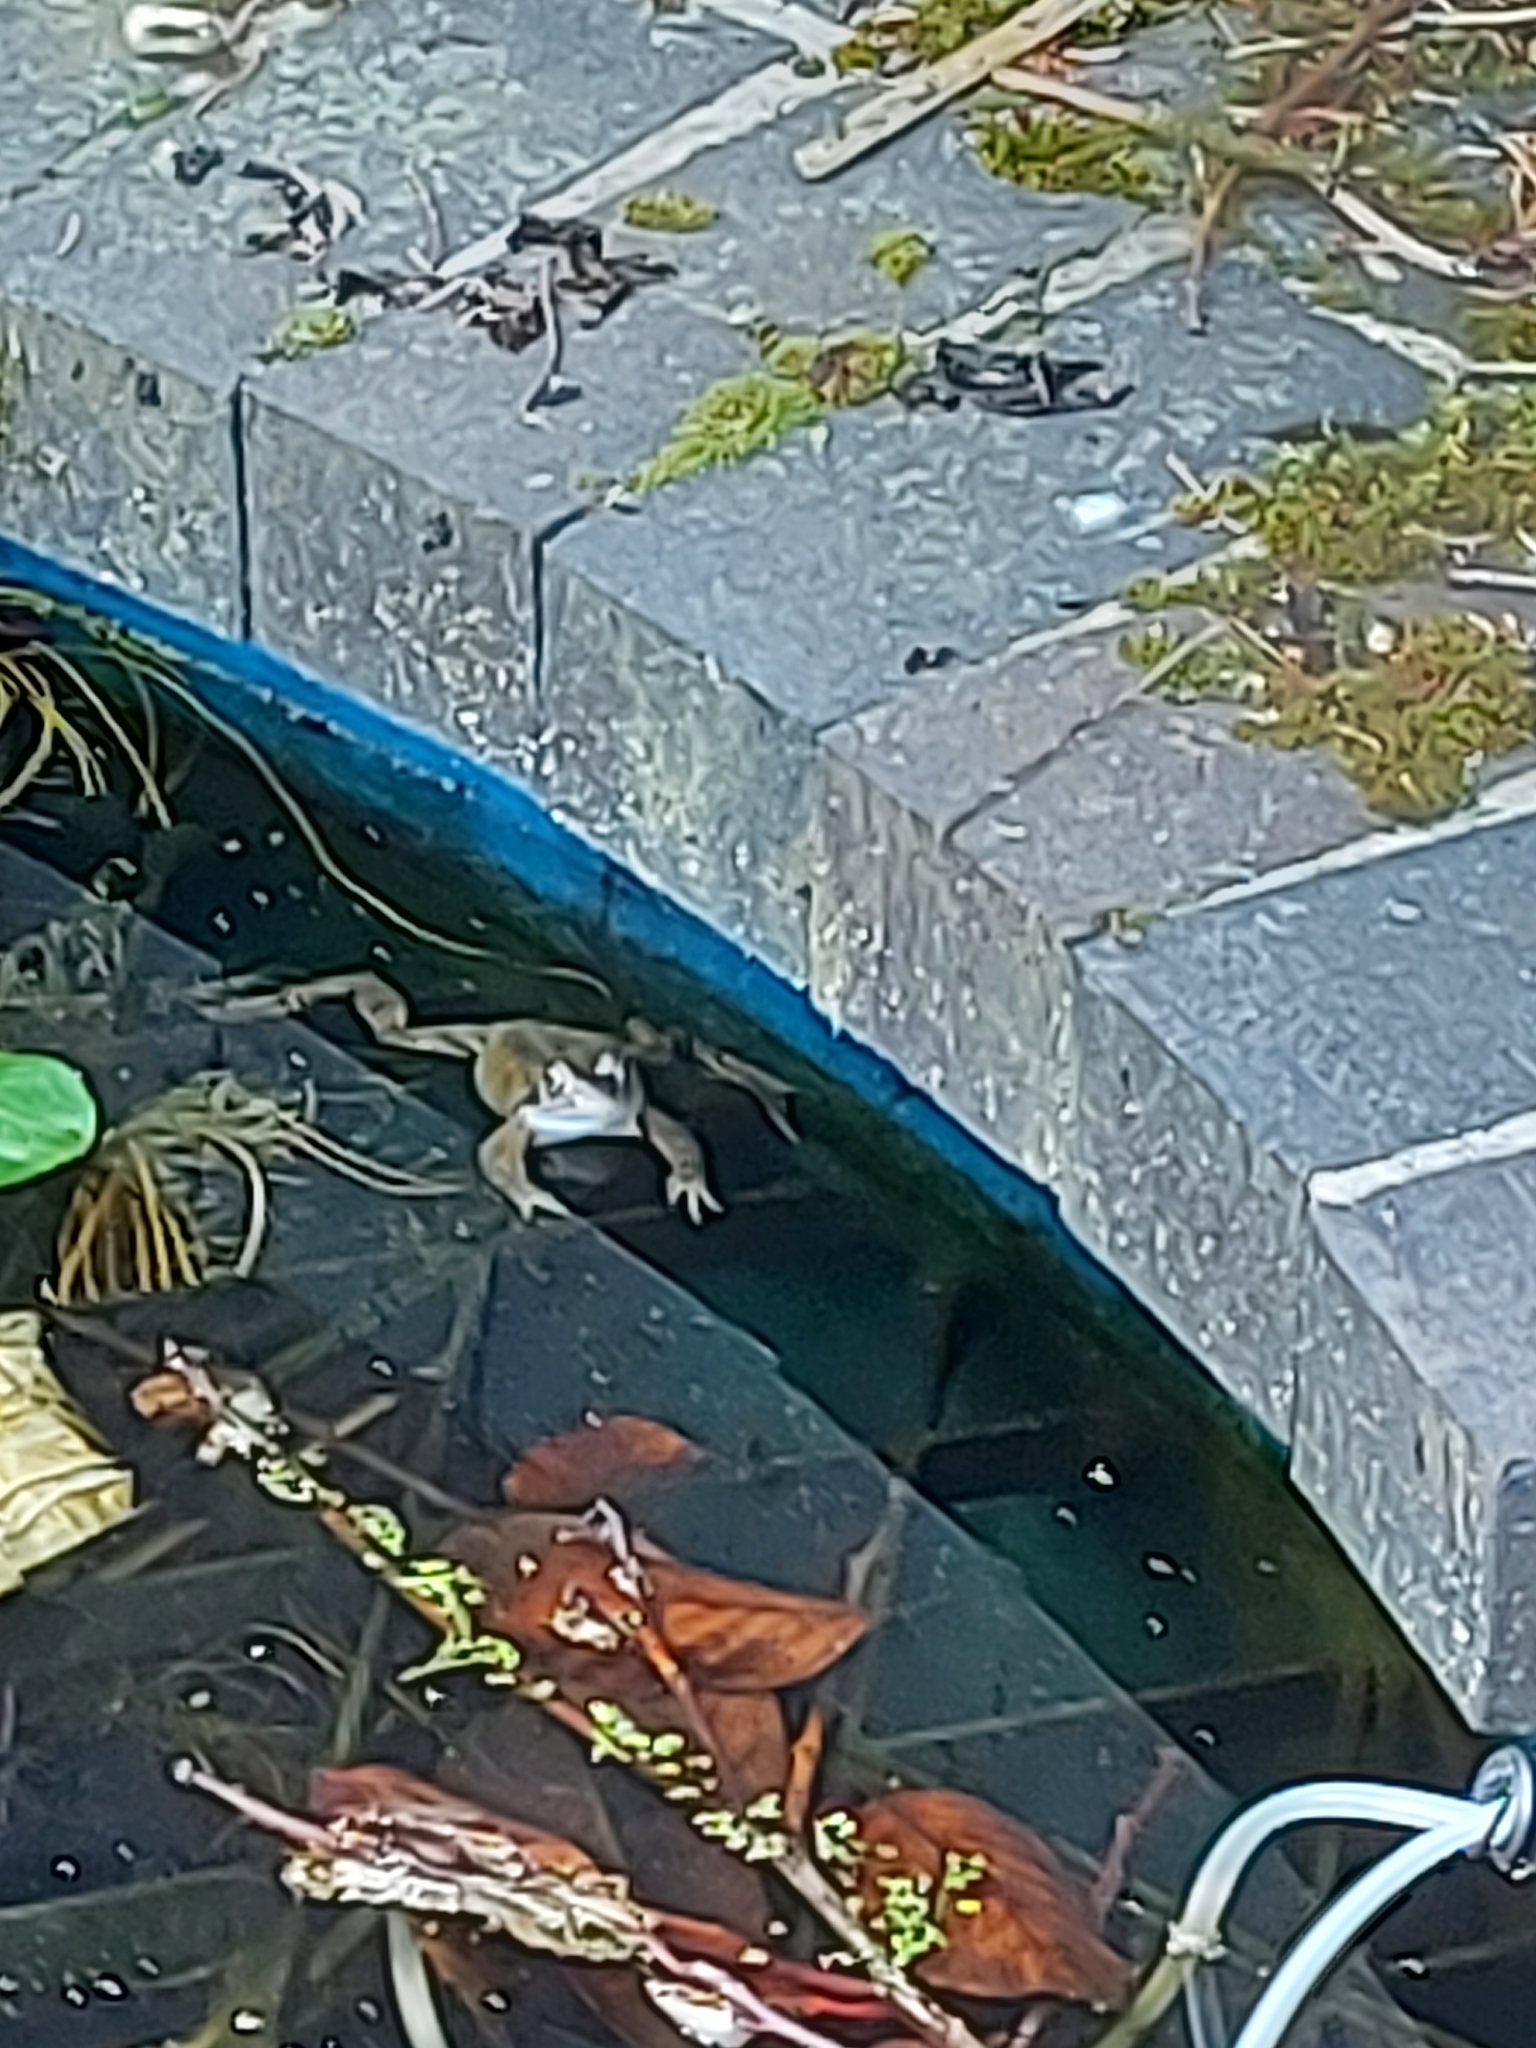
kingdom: Animalia
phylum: Chordata
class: Amphibia
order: Anura
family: Ranidae
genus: Rana
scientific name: Rana temporaria
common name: Common frog
